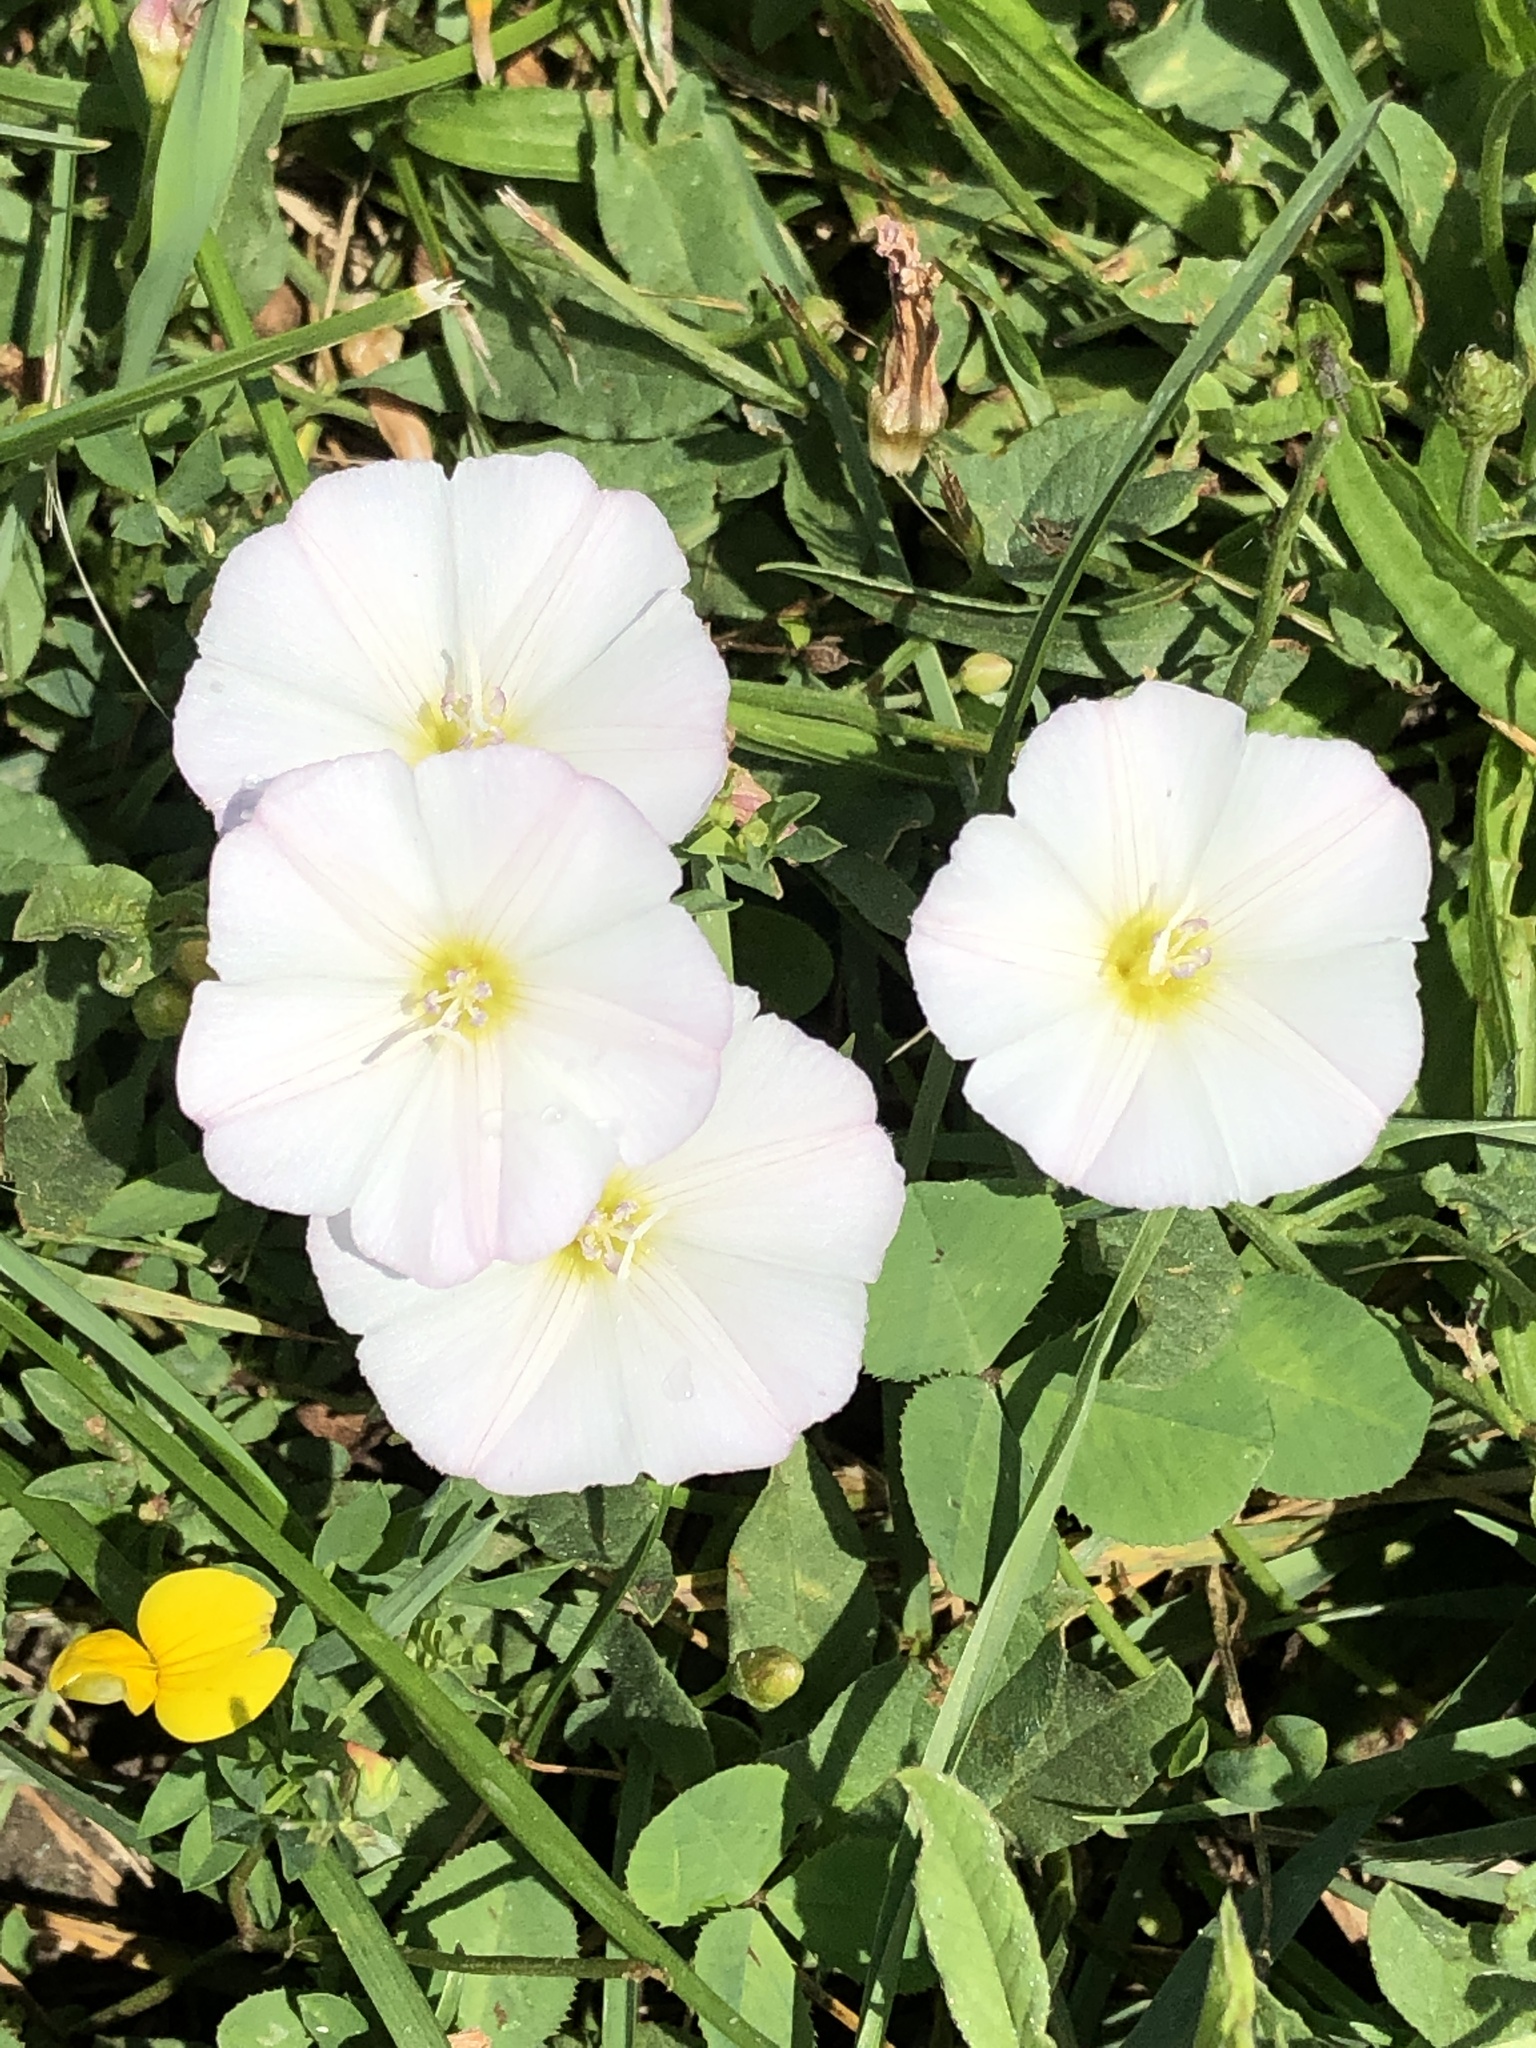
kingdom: Plantae
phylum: Tracheophyta
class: Magnoliopsida
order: Solanales
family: Convolvulaceae
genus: Convolvulus
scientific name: Convolvulus arvensis
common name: Field bindweed
